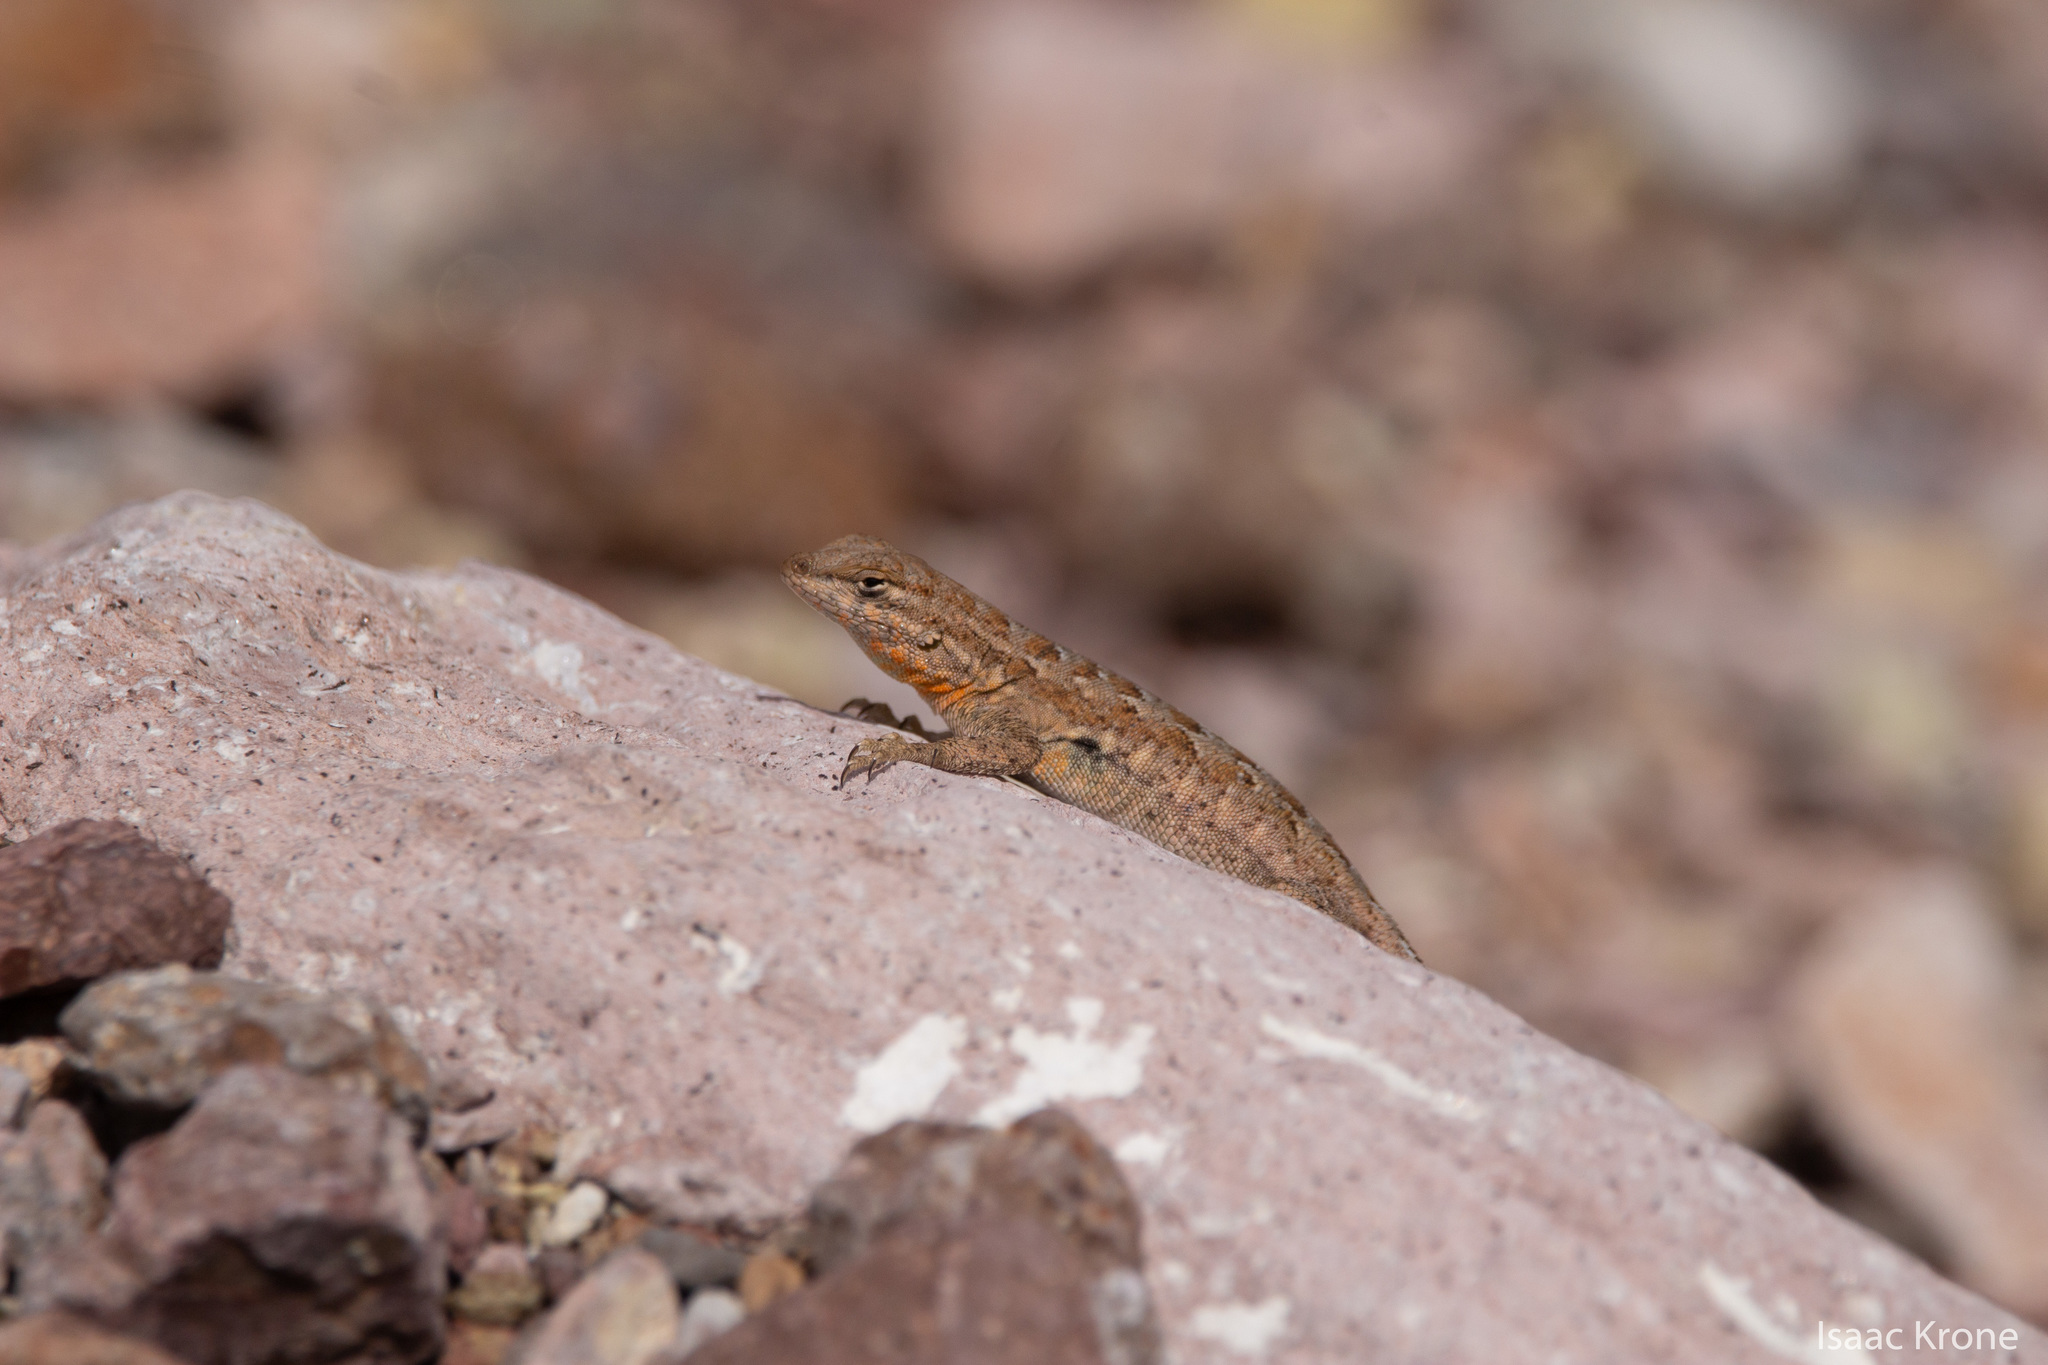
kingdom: Animalia
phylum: Chordata
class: Squamata
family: Phrynosomatidae
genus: Uta
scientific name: Uta stansburiana
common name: Side-blotched lizard
